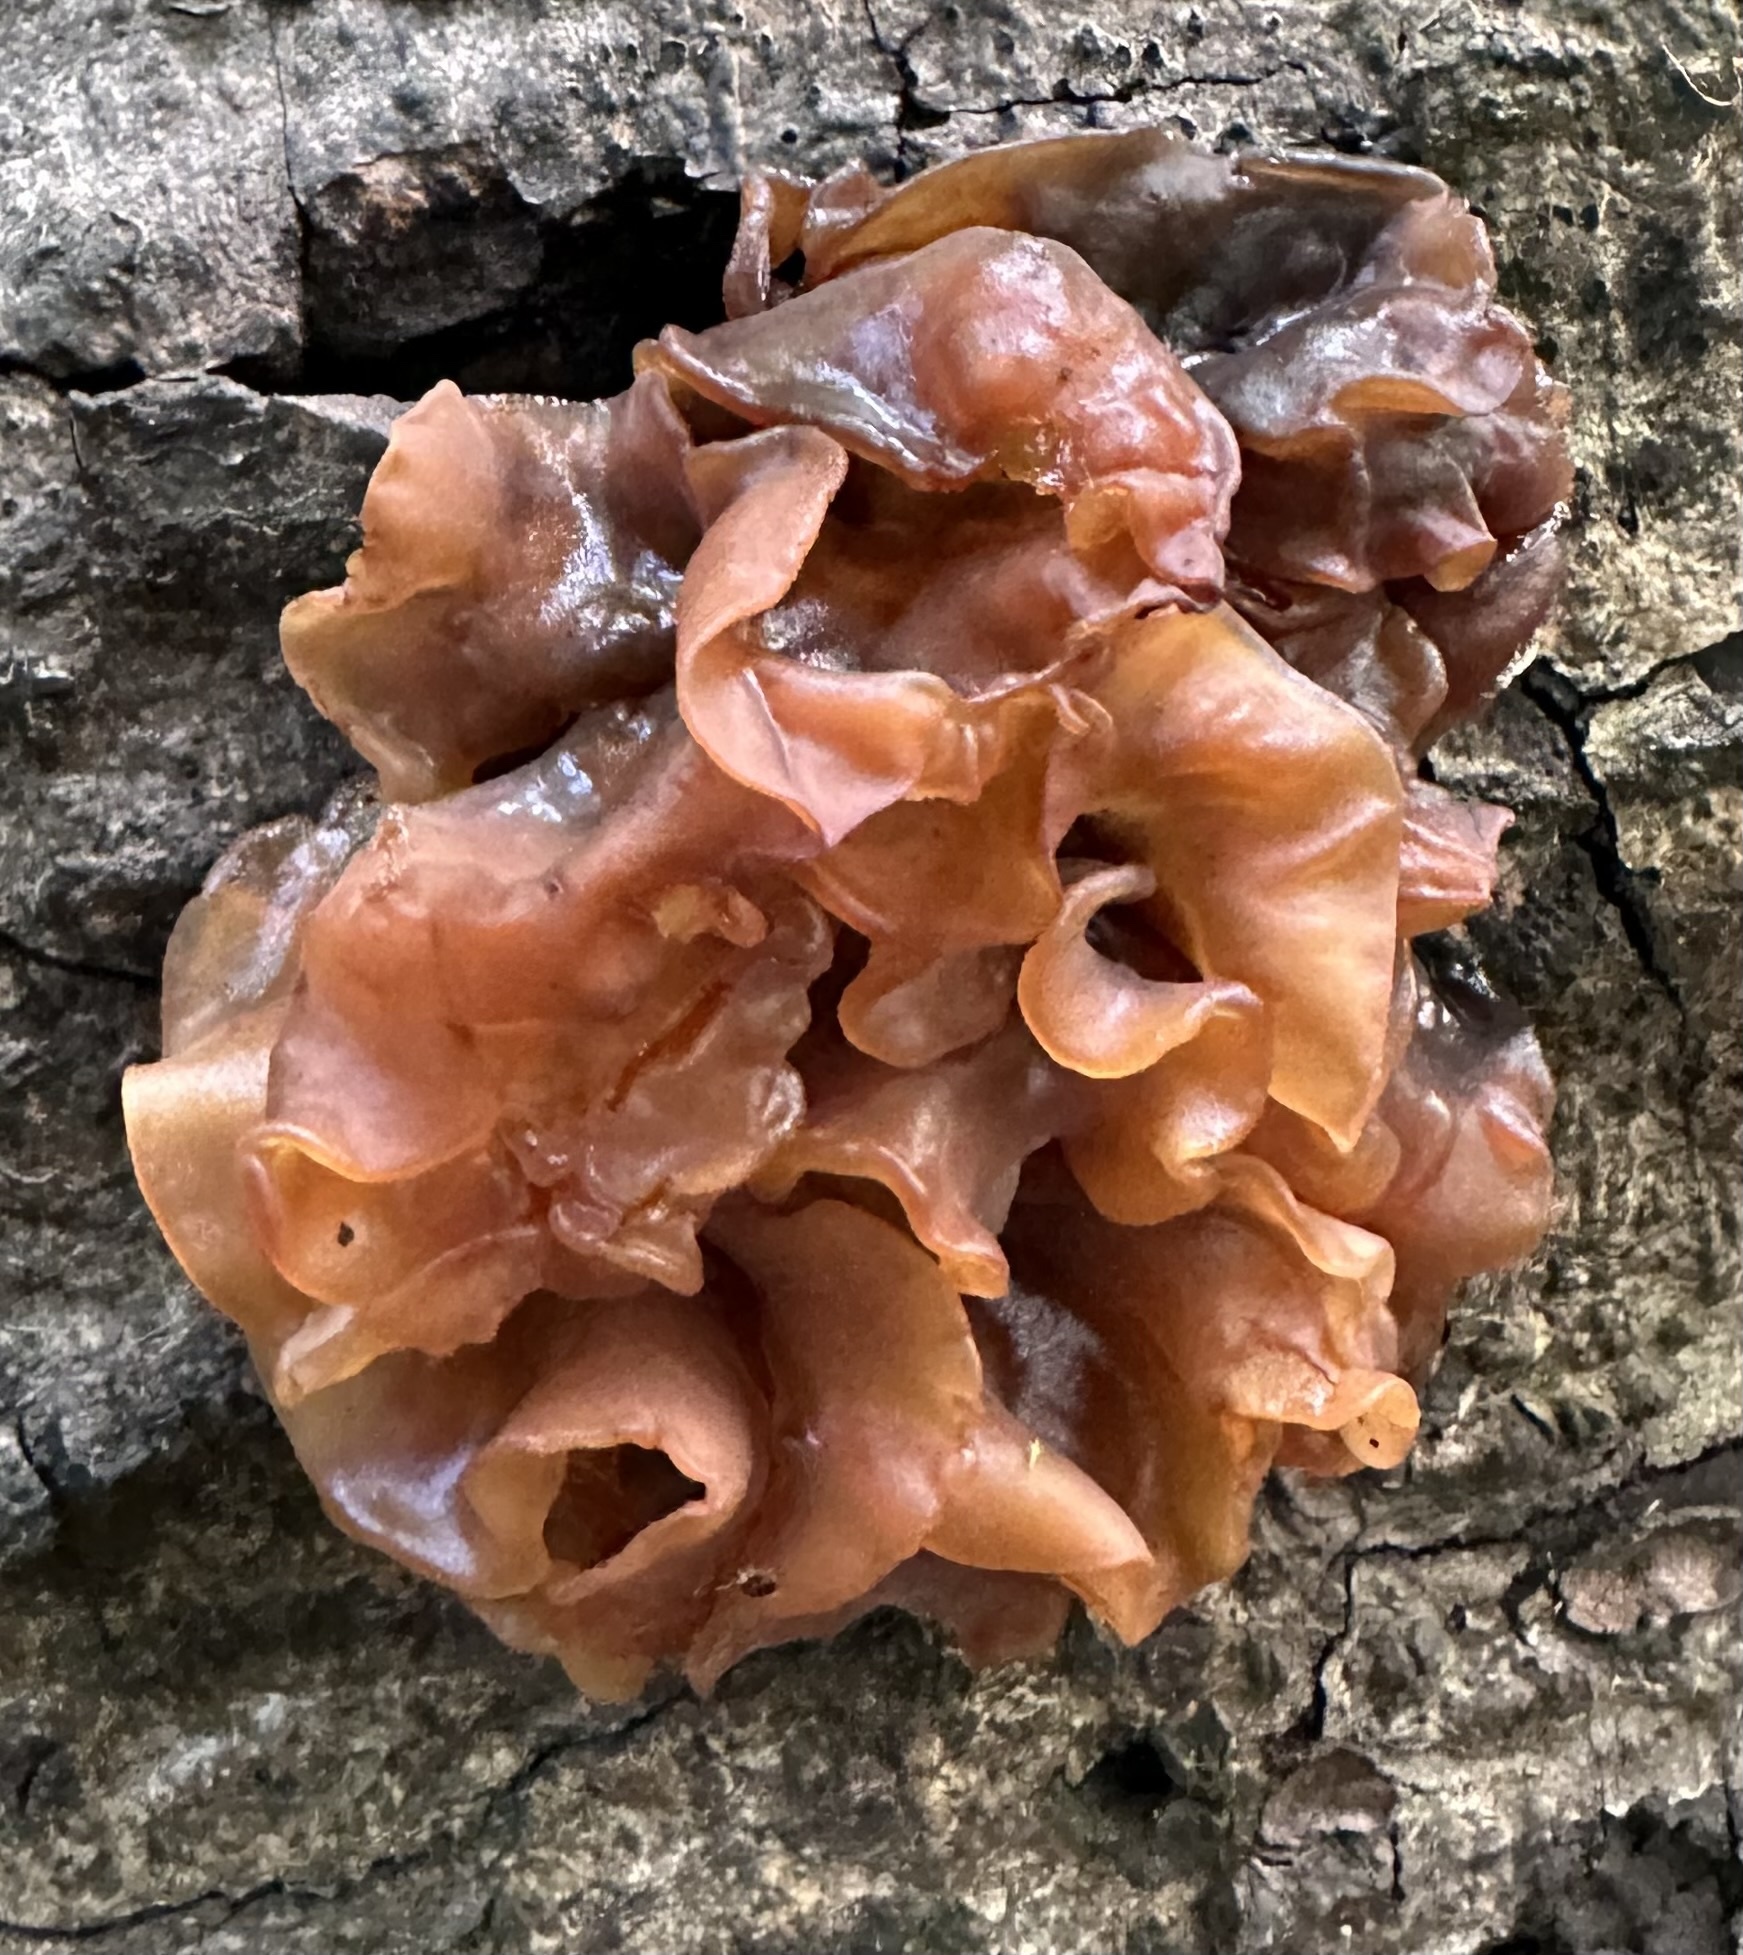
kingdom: Fungi
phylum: Basidiomycota
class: Tremellomycetes
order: Tremellales
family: Tremellaceae
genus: Phaeotremella
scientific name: Phaeotremella foliacea
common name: Leafy brain
